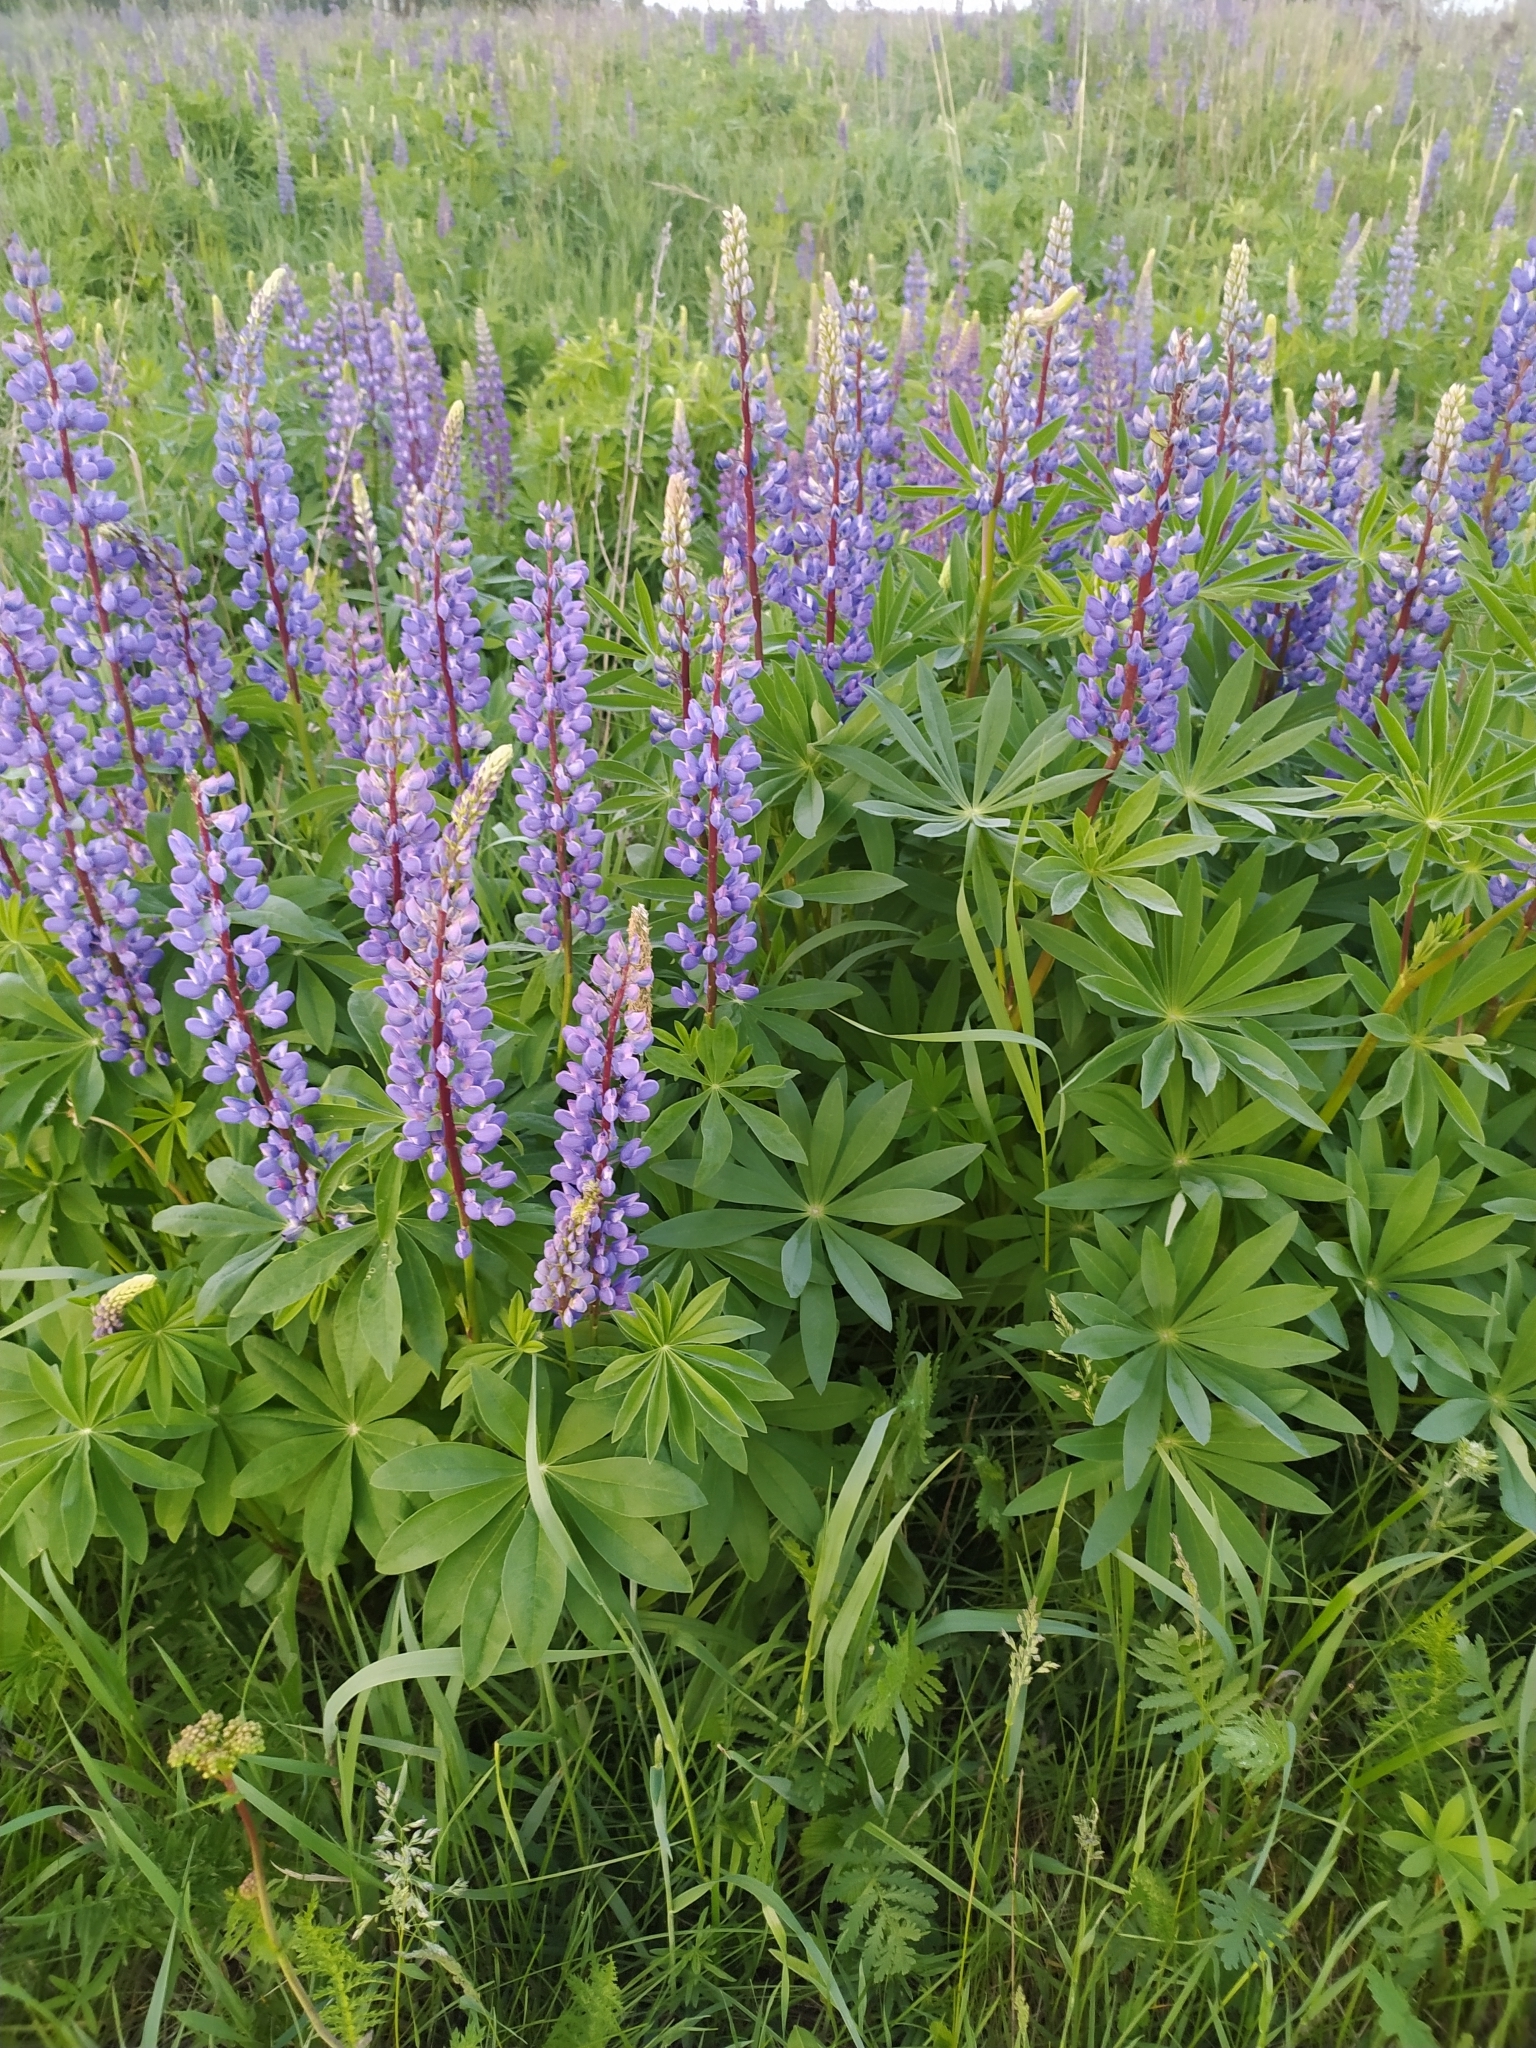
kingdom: Plantae
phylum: Tracheophyta
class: Magnoliopsida
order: Fabales
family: Fabaceae
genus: Lupinus
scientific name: Lupinus polyphyllus
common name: Garden lupin
